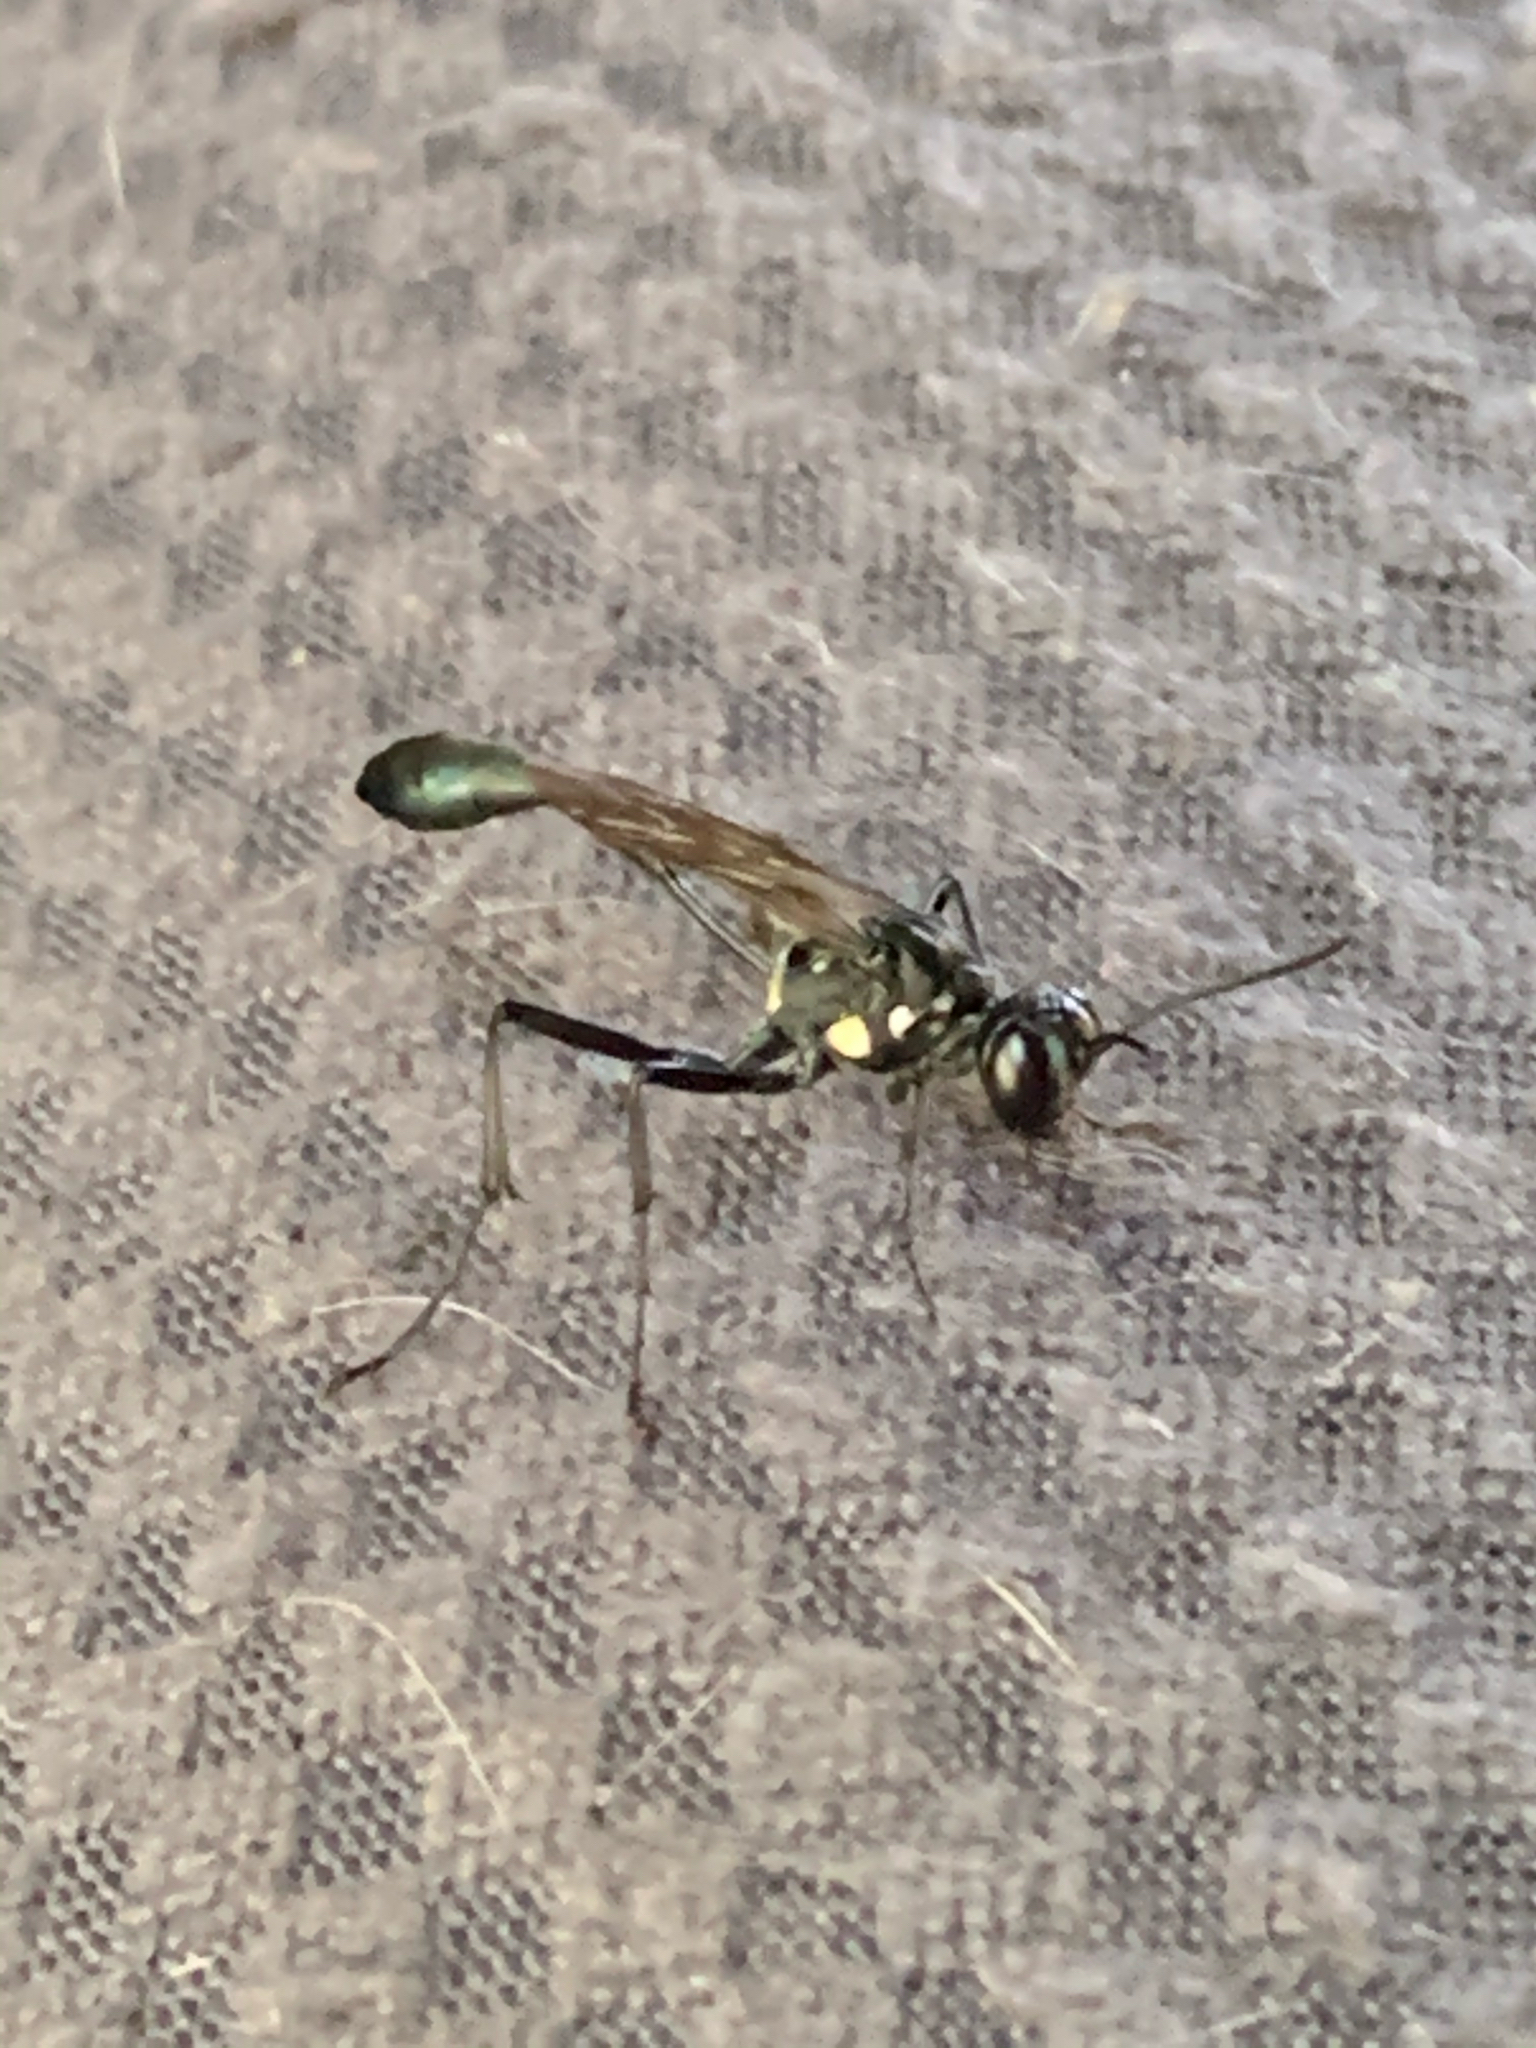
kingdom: Animalia
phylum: Arthropoda
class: Insecta
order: Hymenoptera
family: Sphecidae
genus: Eremnophila
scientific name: Eremnophila aureonotata
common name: Gold-marked thread-waisted wasp
